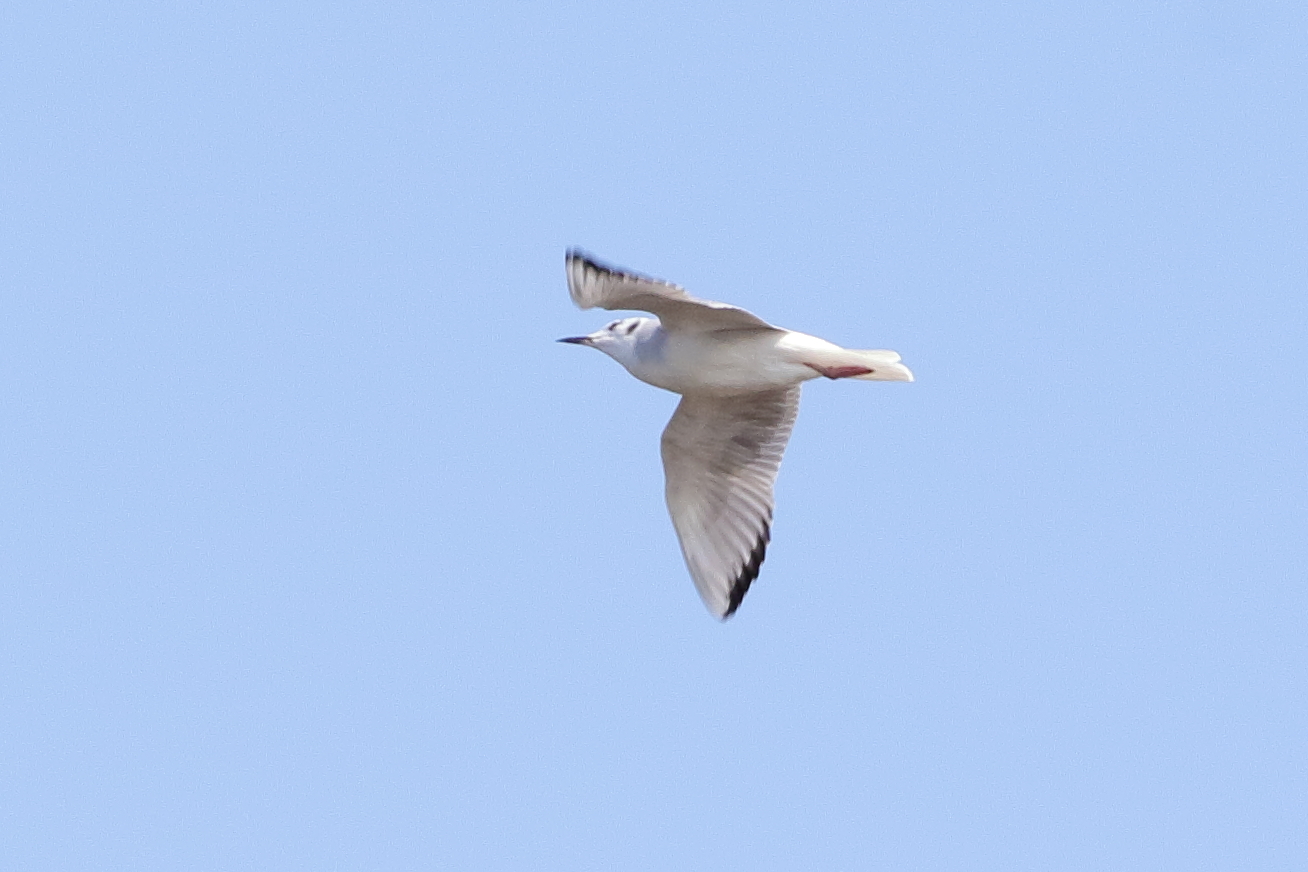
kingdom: Animalia
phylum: Chordata
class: Aves
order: Charadriiformes
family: Laridae
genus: Chroicocephalus
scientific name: Chroicocephalus philadelphia
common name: Bonaparte's gull
